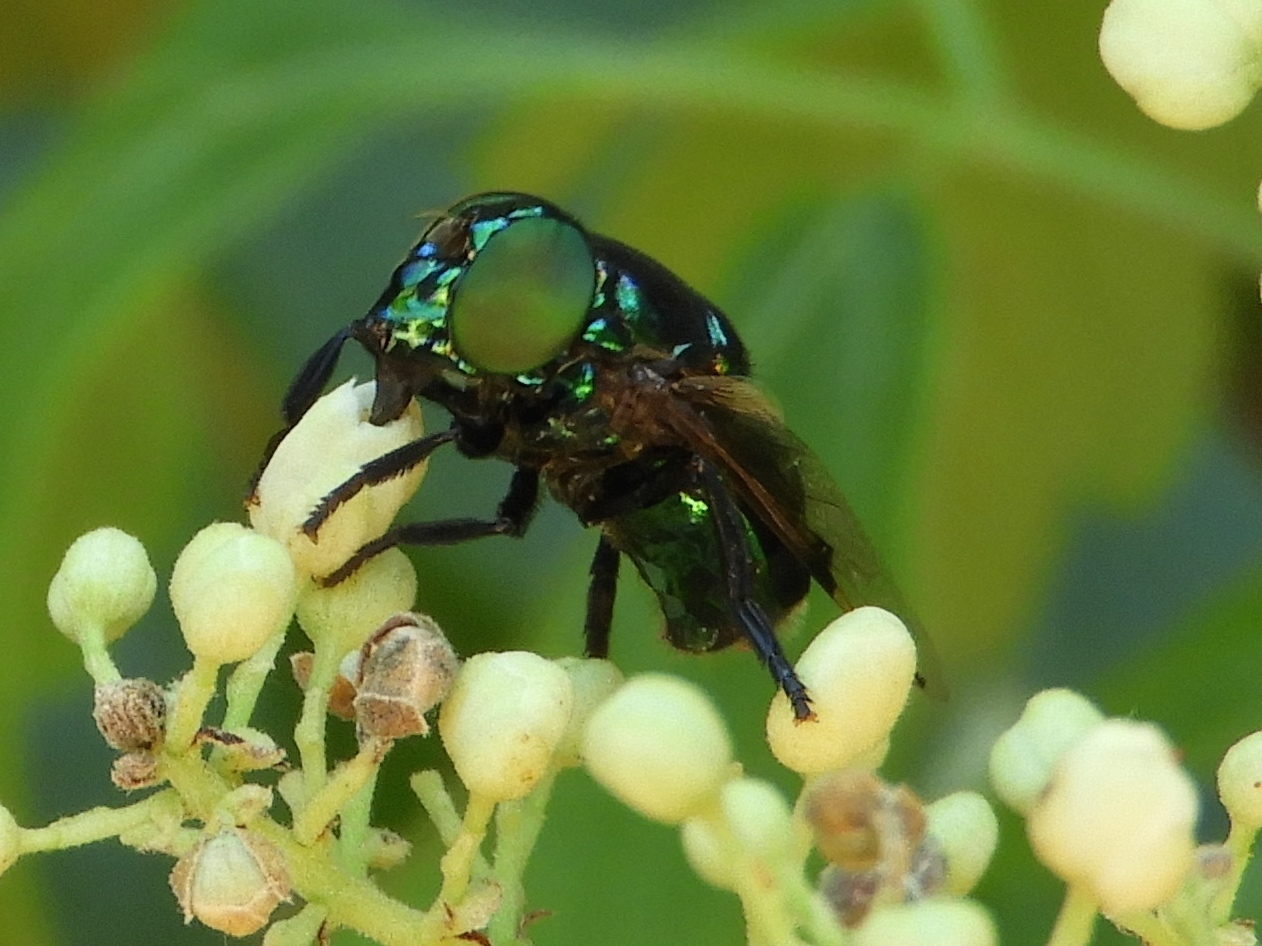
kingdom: Animalia
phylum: Arthropoda
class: Insecta
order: Diptera
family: Syrphidae
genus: Ornidia
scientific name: Ornidia obesa
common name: Syrphid fly
